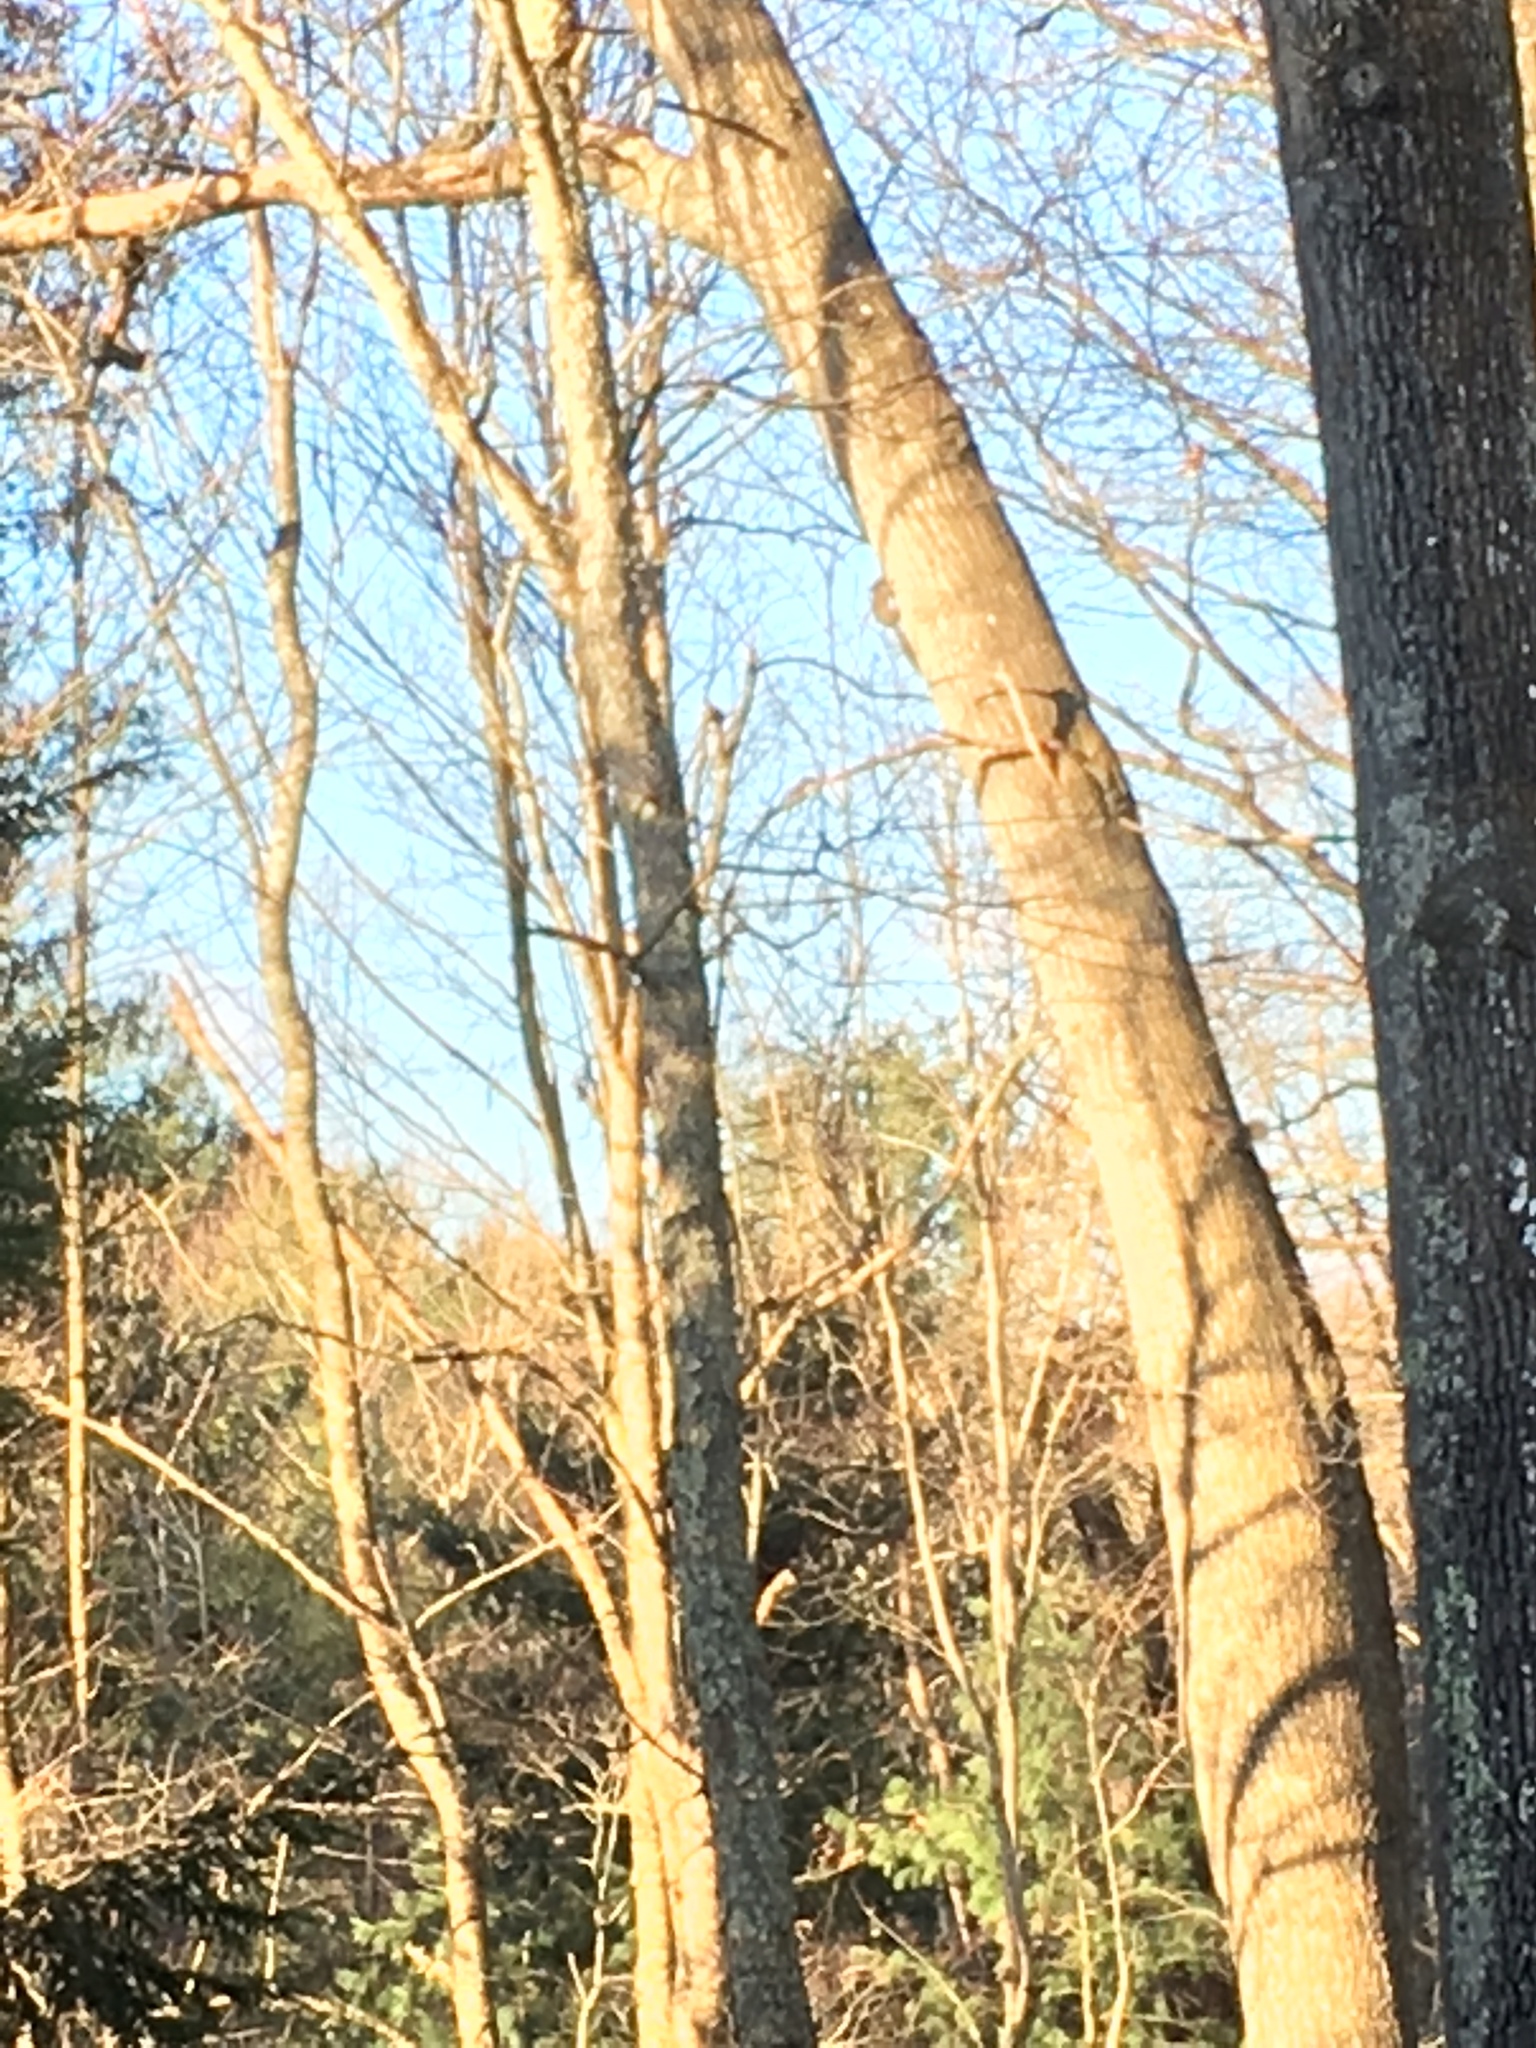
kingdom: Animalia
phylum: Chordata
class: Mammalia
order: Rodentia
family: Sciuridae
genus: Sciurus
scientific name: Sciurus carolinensis
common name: Eastern gray squirrel
